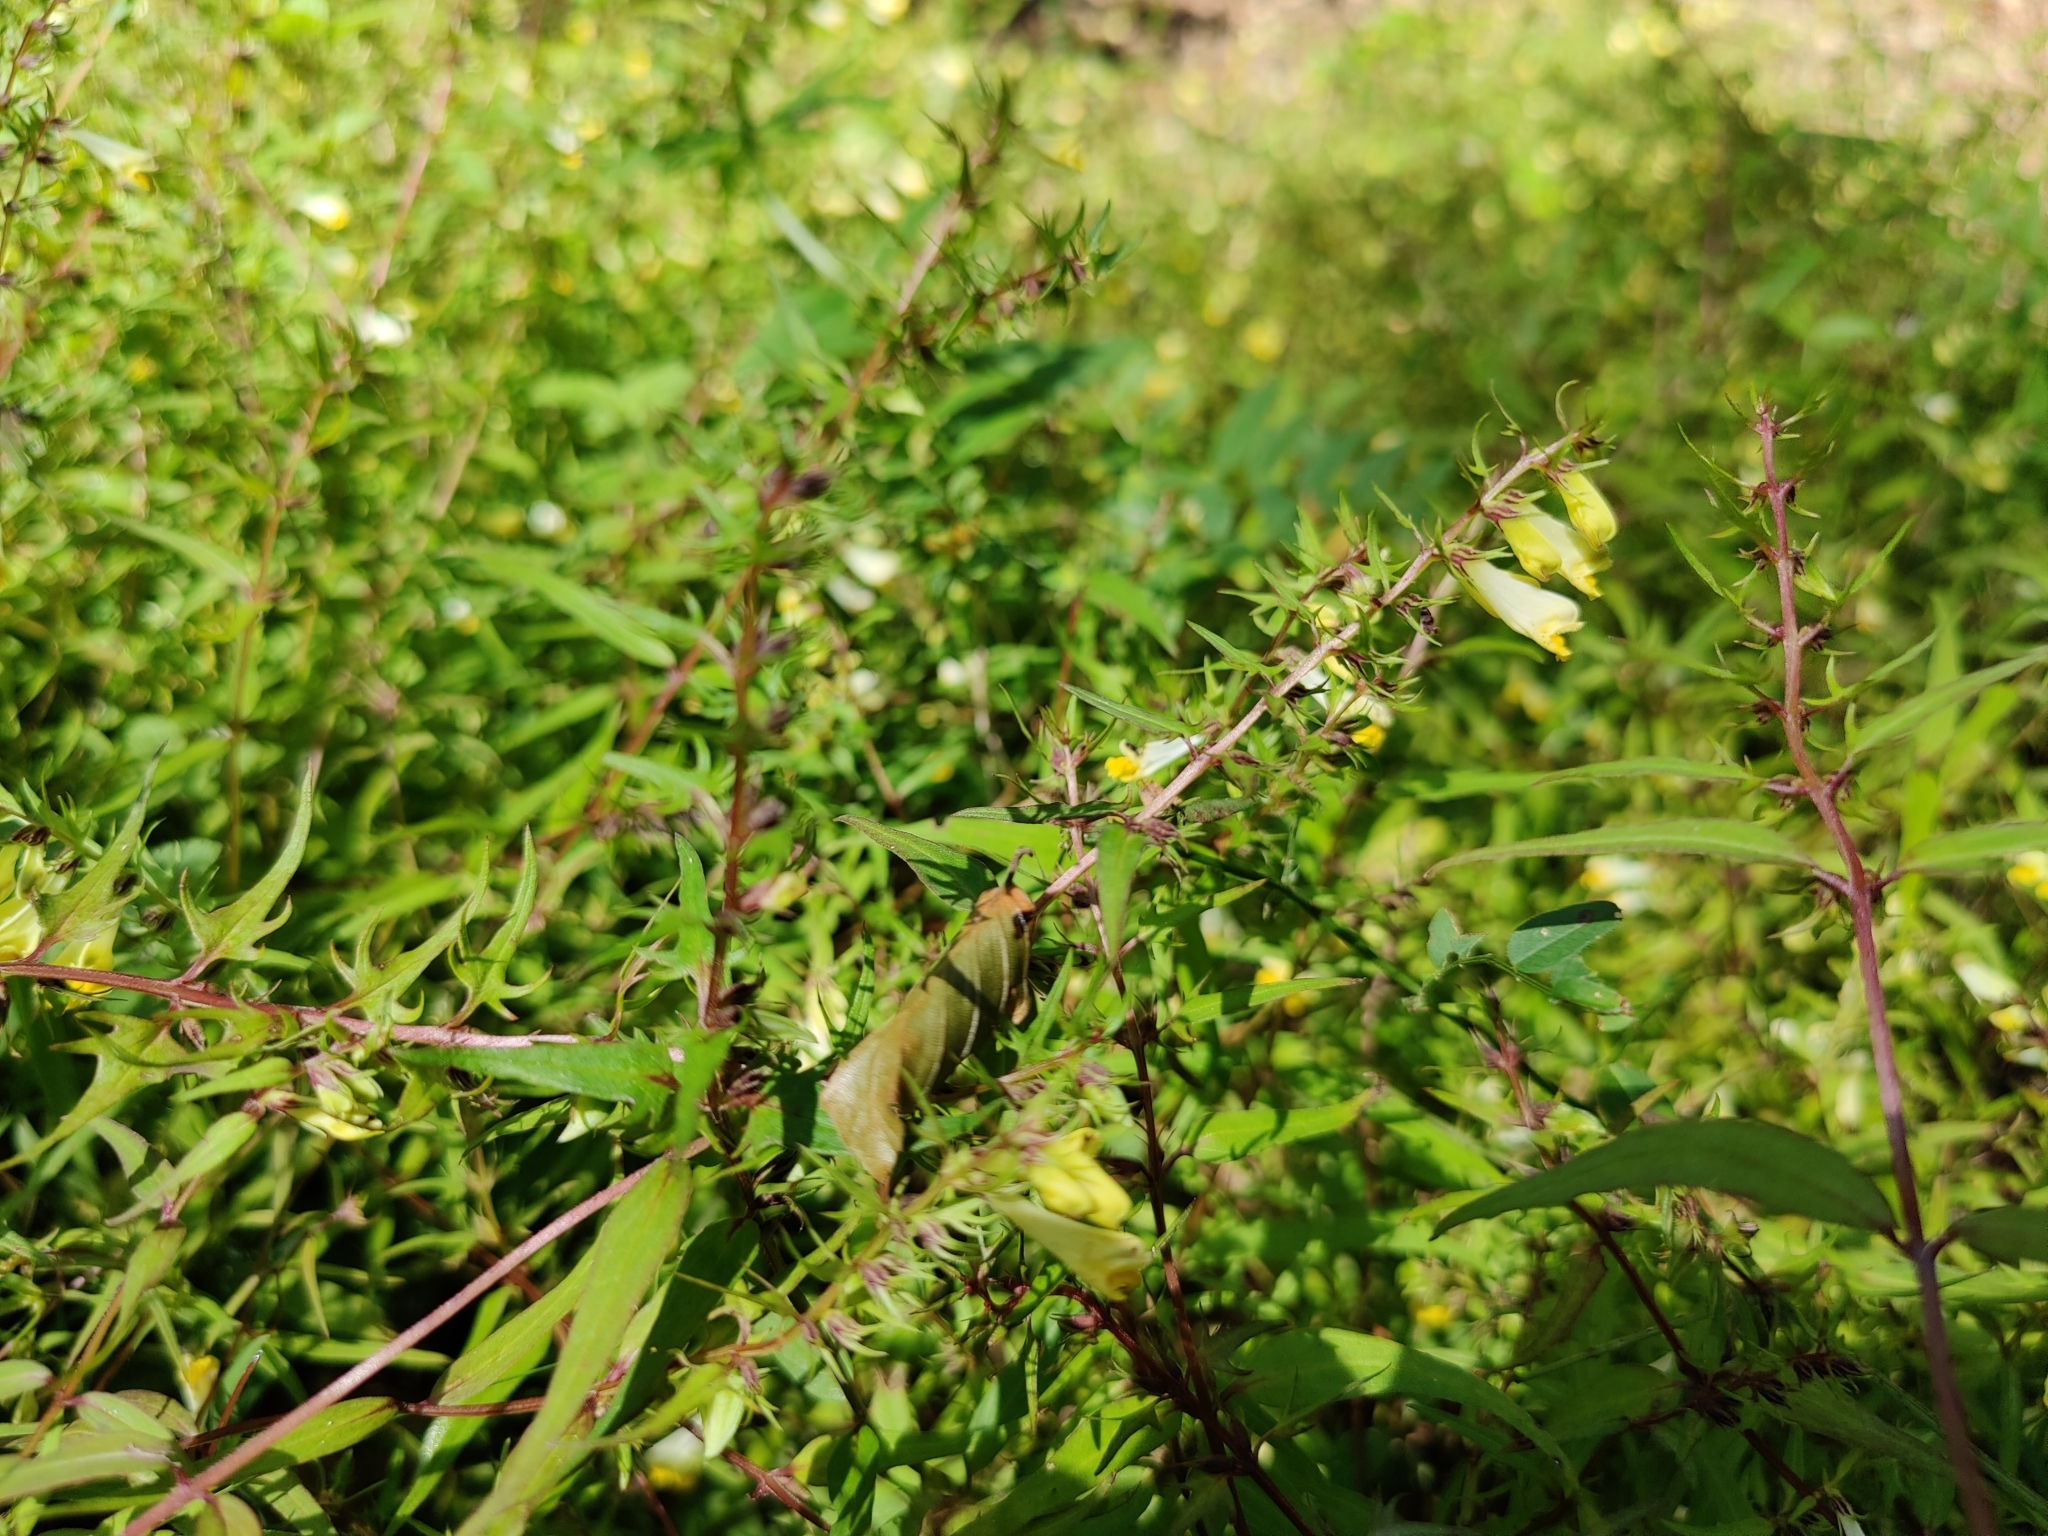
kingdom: Plantae
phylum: Tracheophyta
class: Magnoliopsida
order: Lamiales
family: Orobanchaceae
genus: Melampyrum
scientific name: Melampyrum pratense
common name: Common cow-wheat
